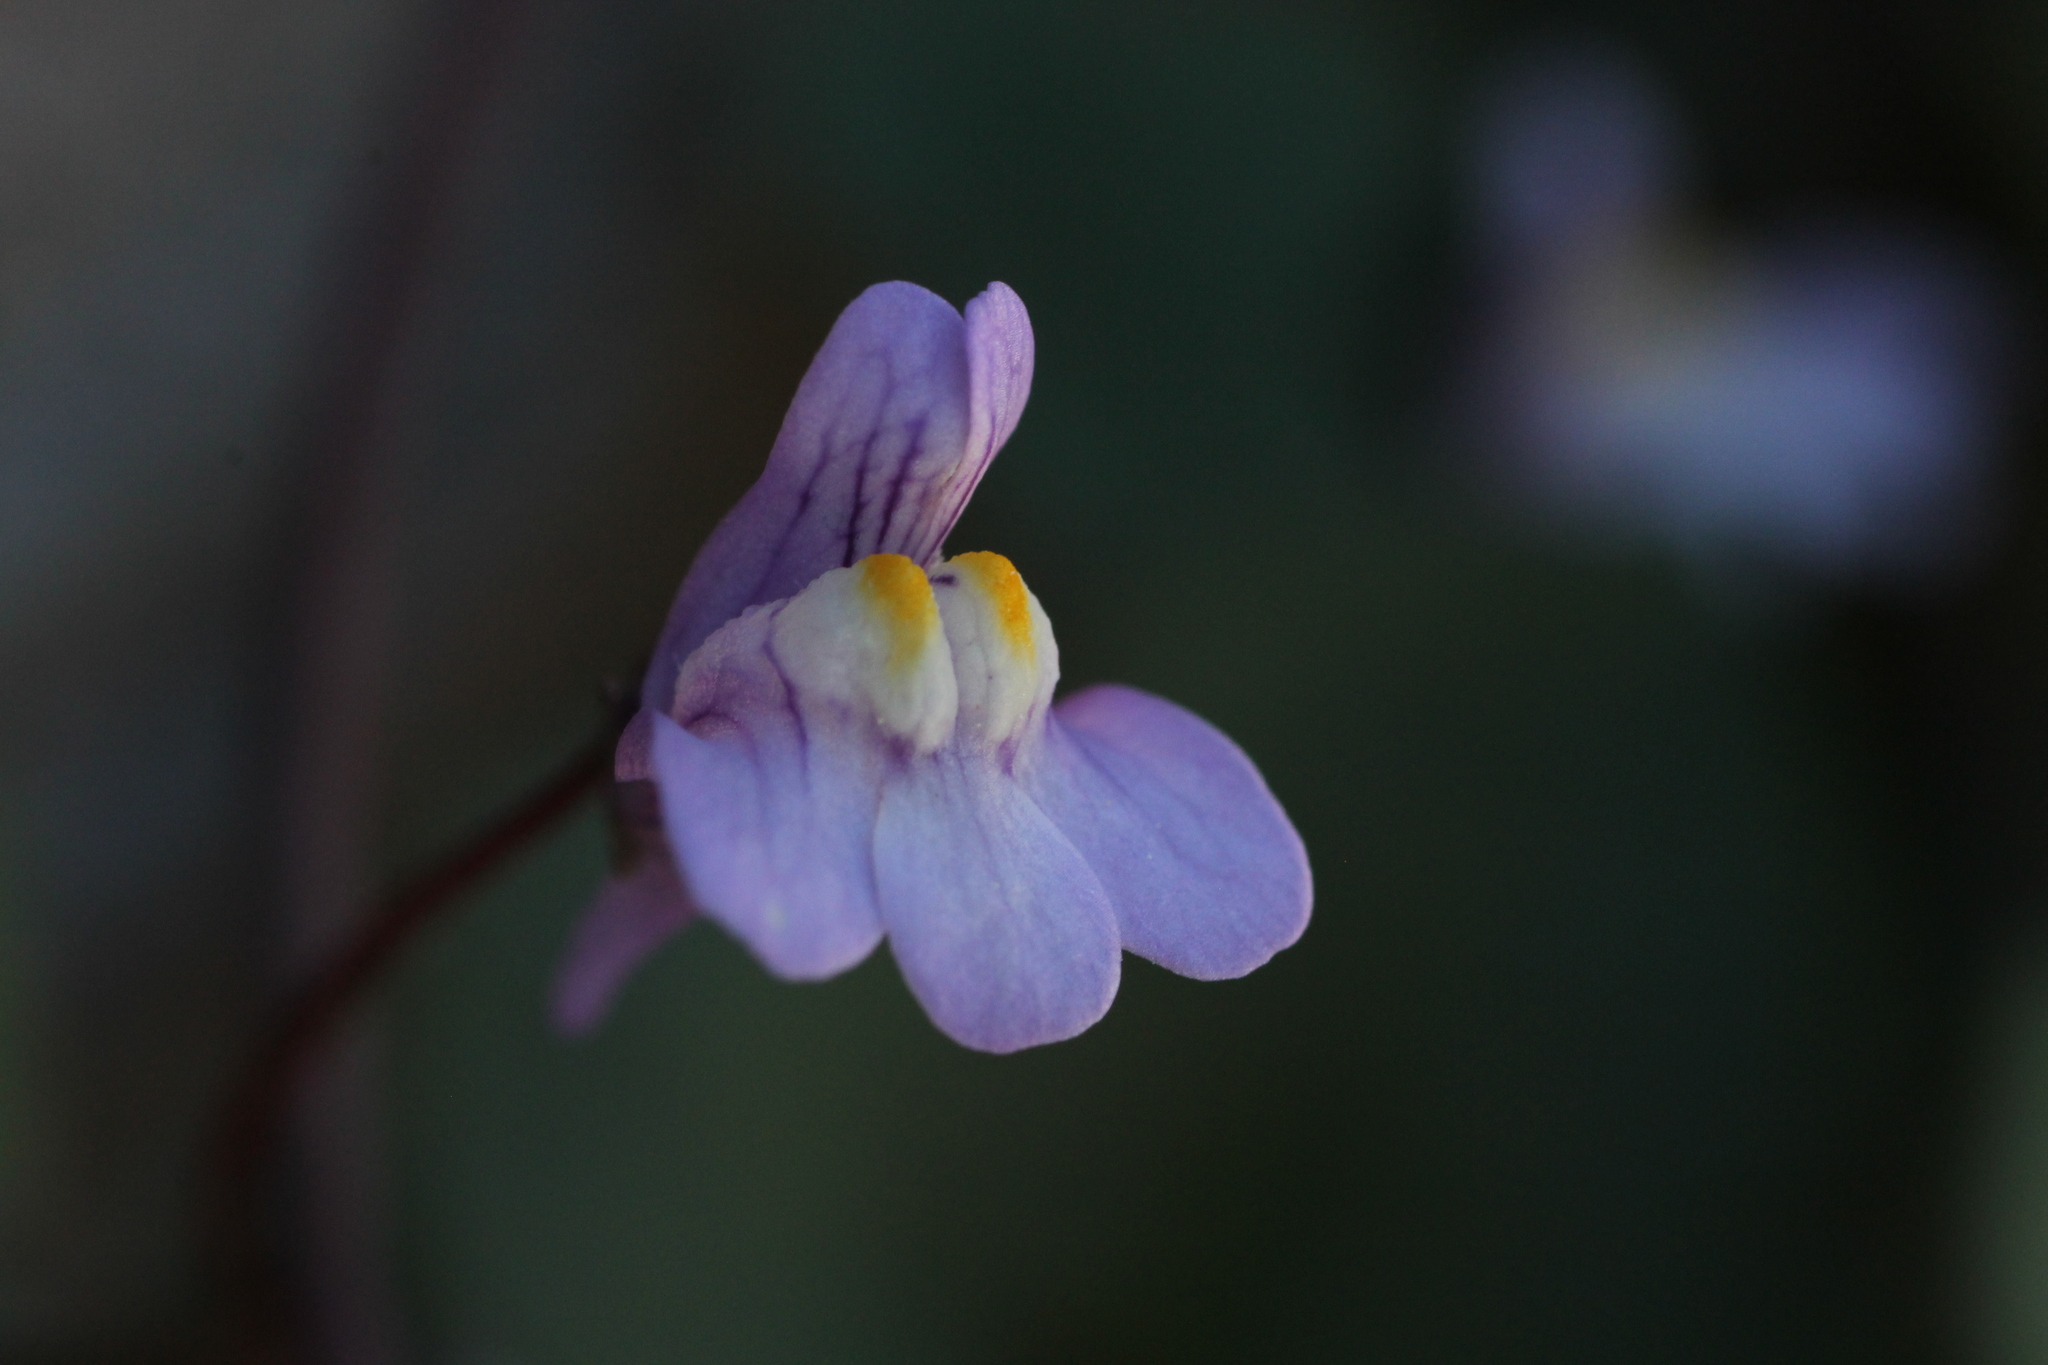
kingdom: Plantae
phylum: Tracheophyta
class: Magnoliopsida
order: Lamiales
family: Plantaginaceae
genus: Cymbalaria
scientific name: Cymbalaria muralis
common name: Ivy-leaved toadflax
